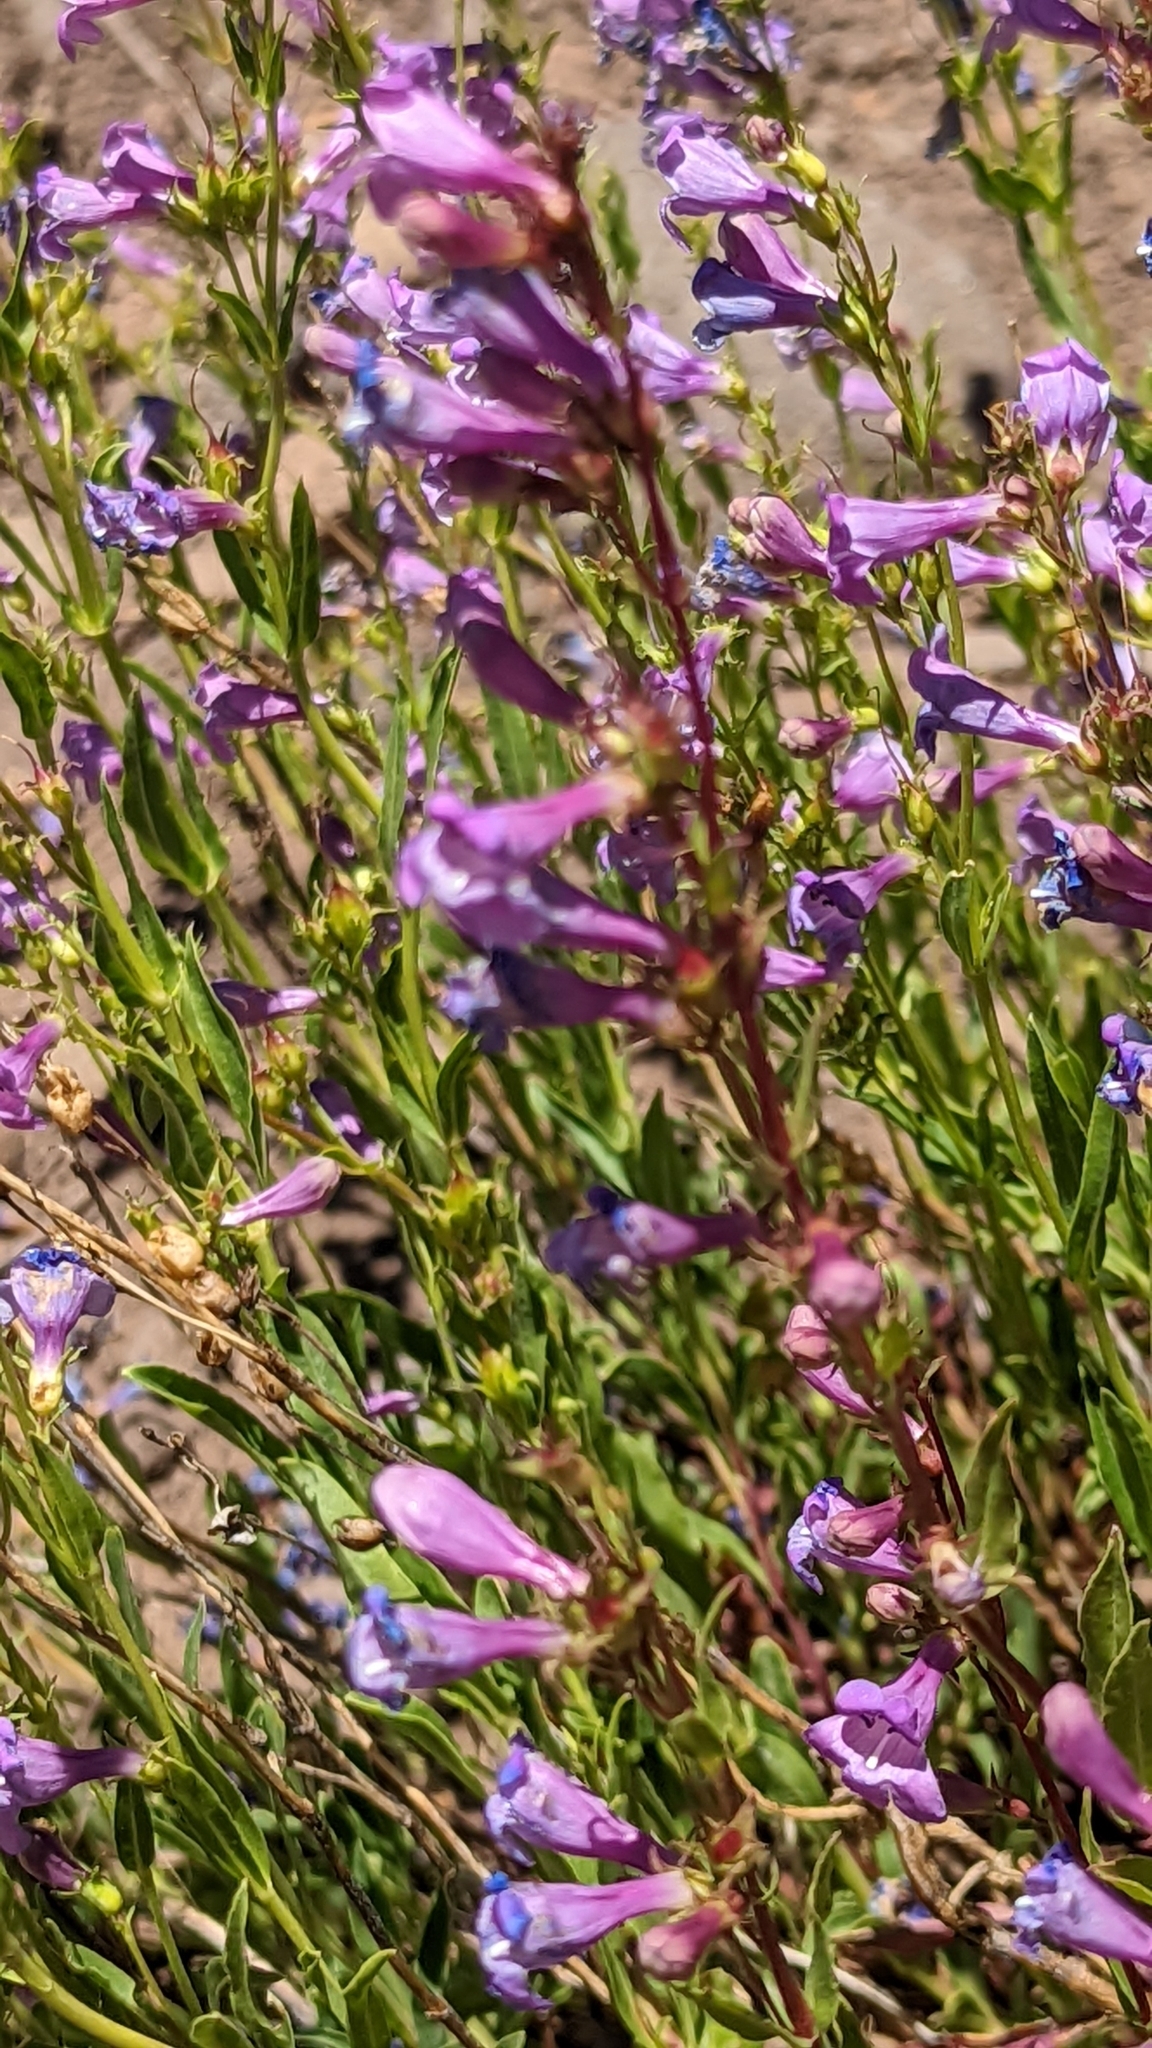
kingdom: Plantae
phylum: Tracheophyta
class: Magnoliopsida
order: Lamiales
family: Plantaginaceae
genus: Penstemon
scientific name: Penstemon leonardii
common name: Leonard's penstemon
